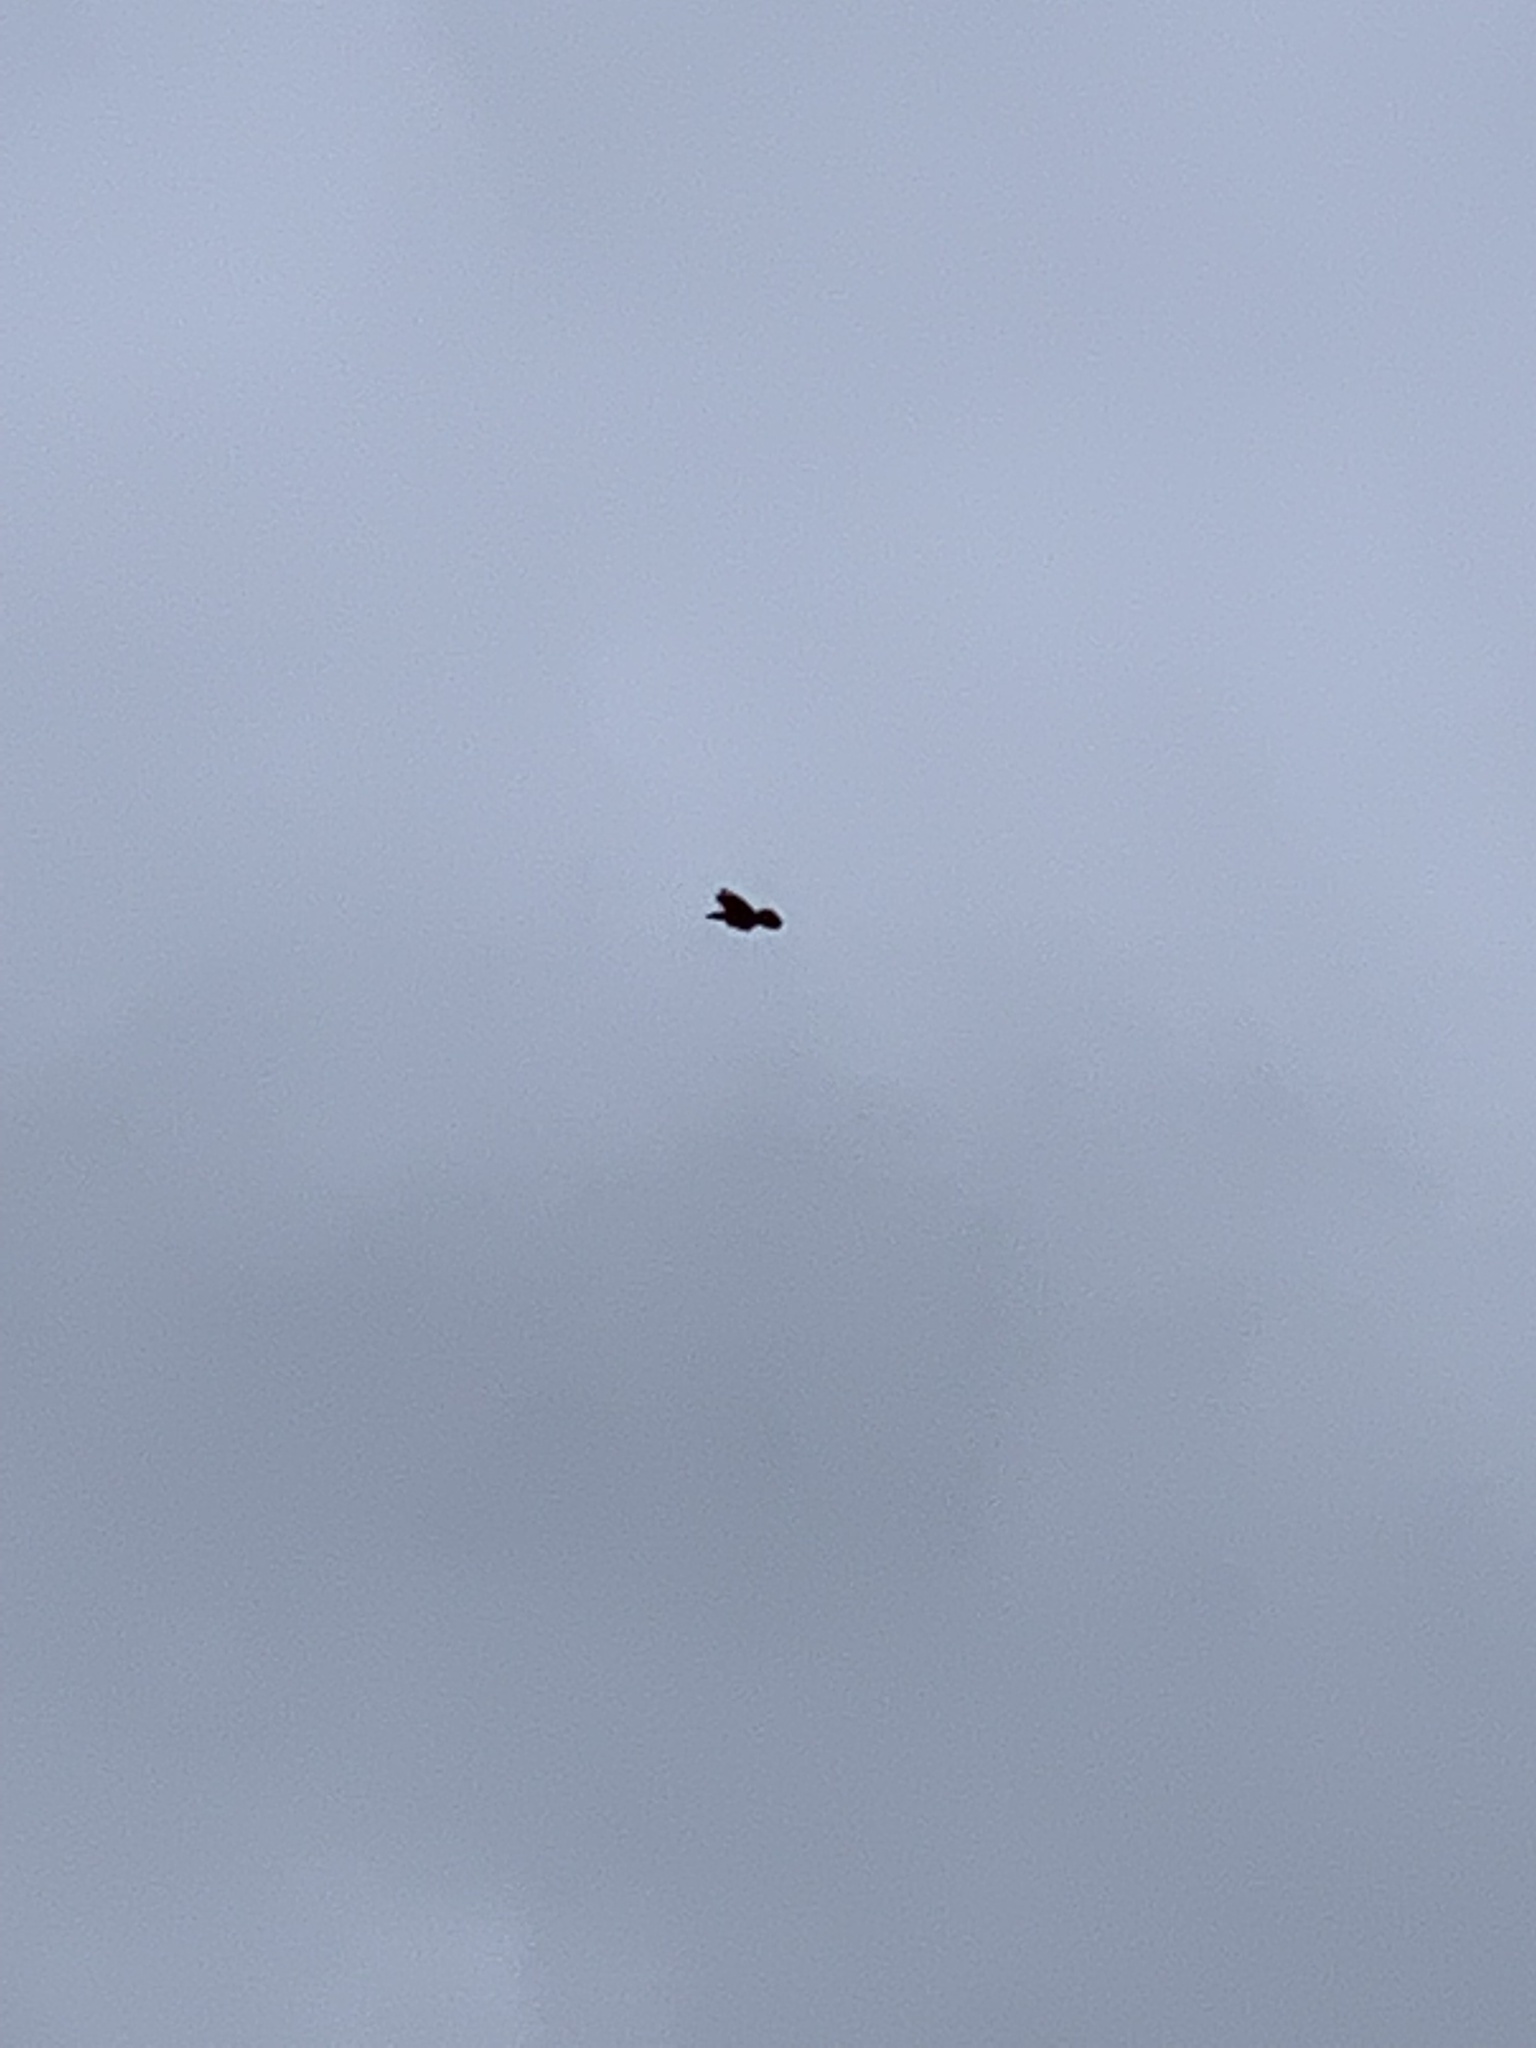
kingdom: Animalia
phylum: Chordata
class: Aves
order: Passeriformes
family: Corvidae
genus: Corvus
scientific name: Corvus corax
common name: Common raven
